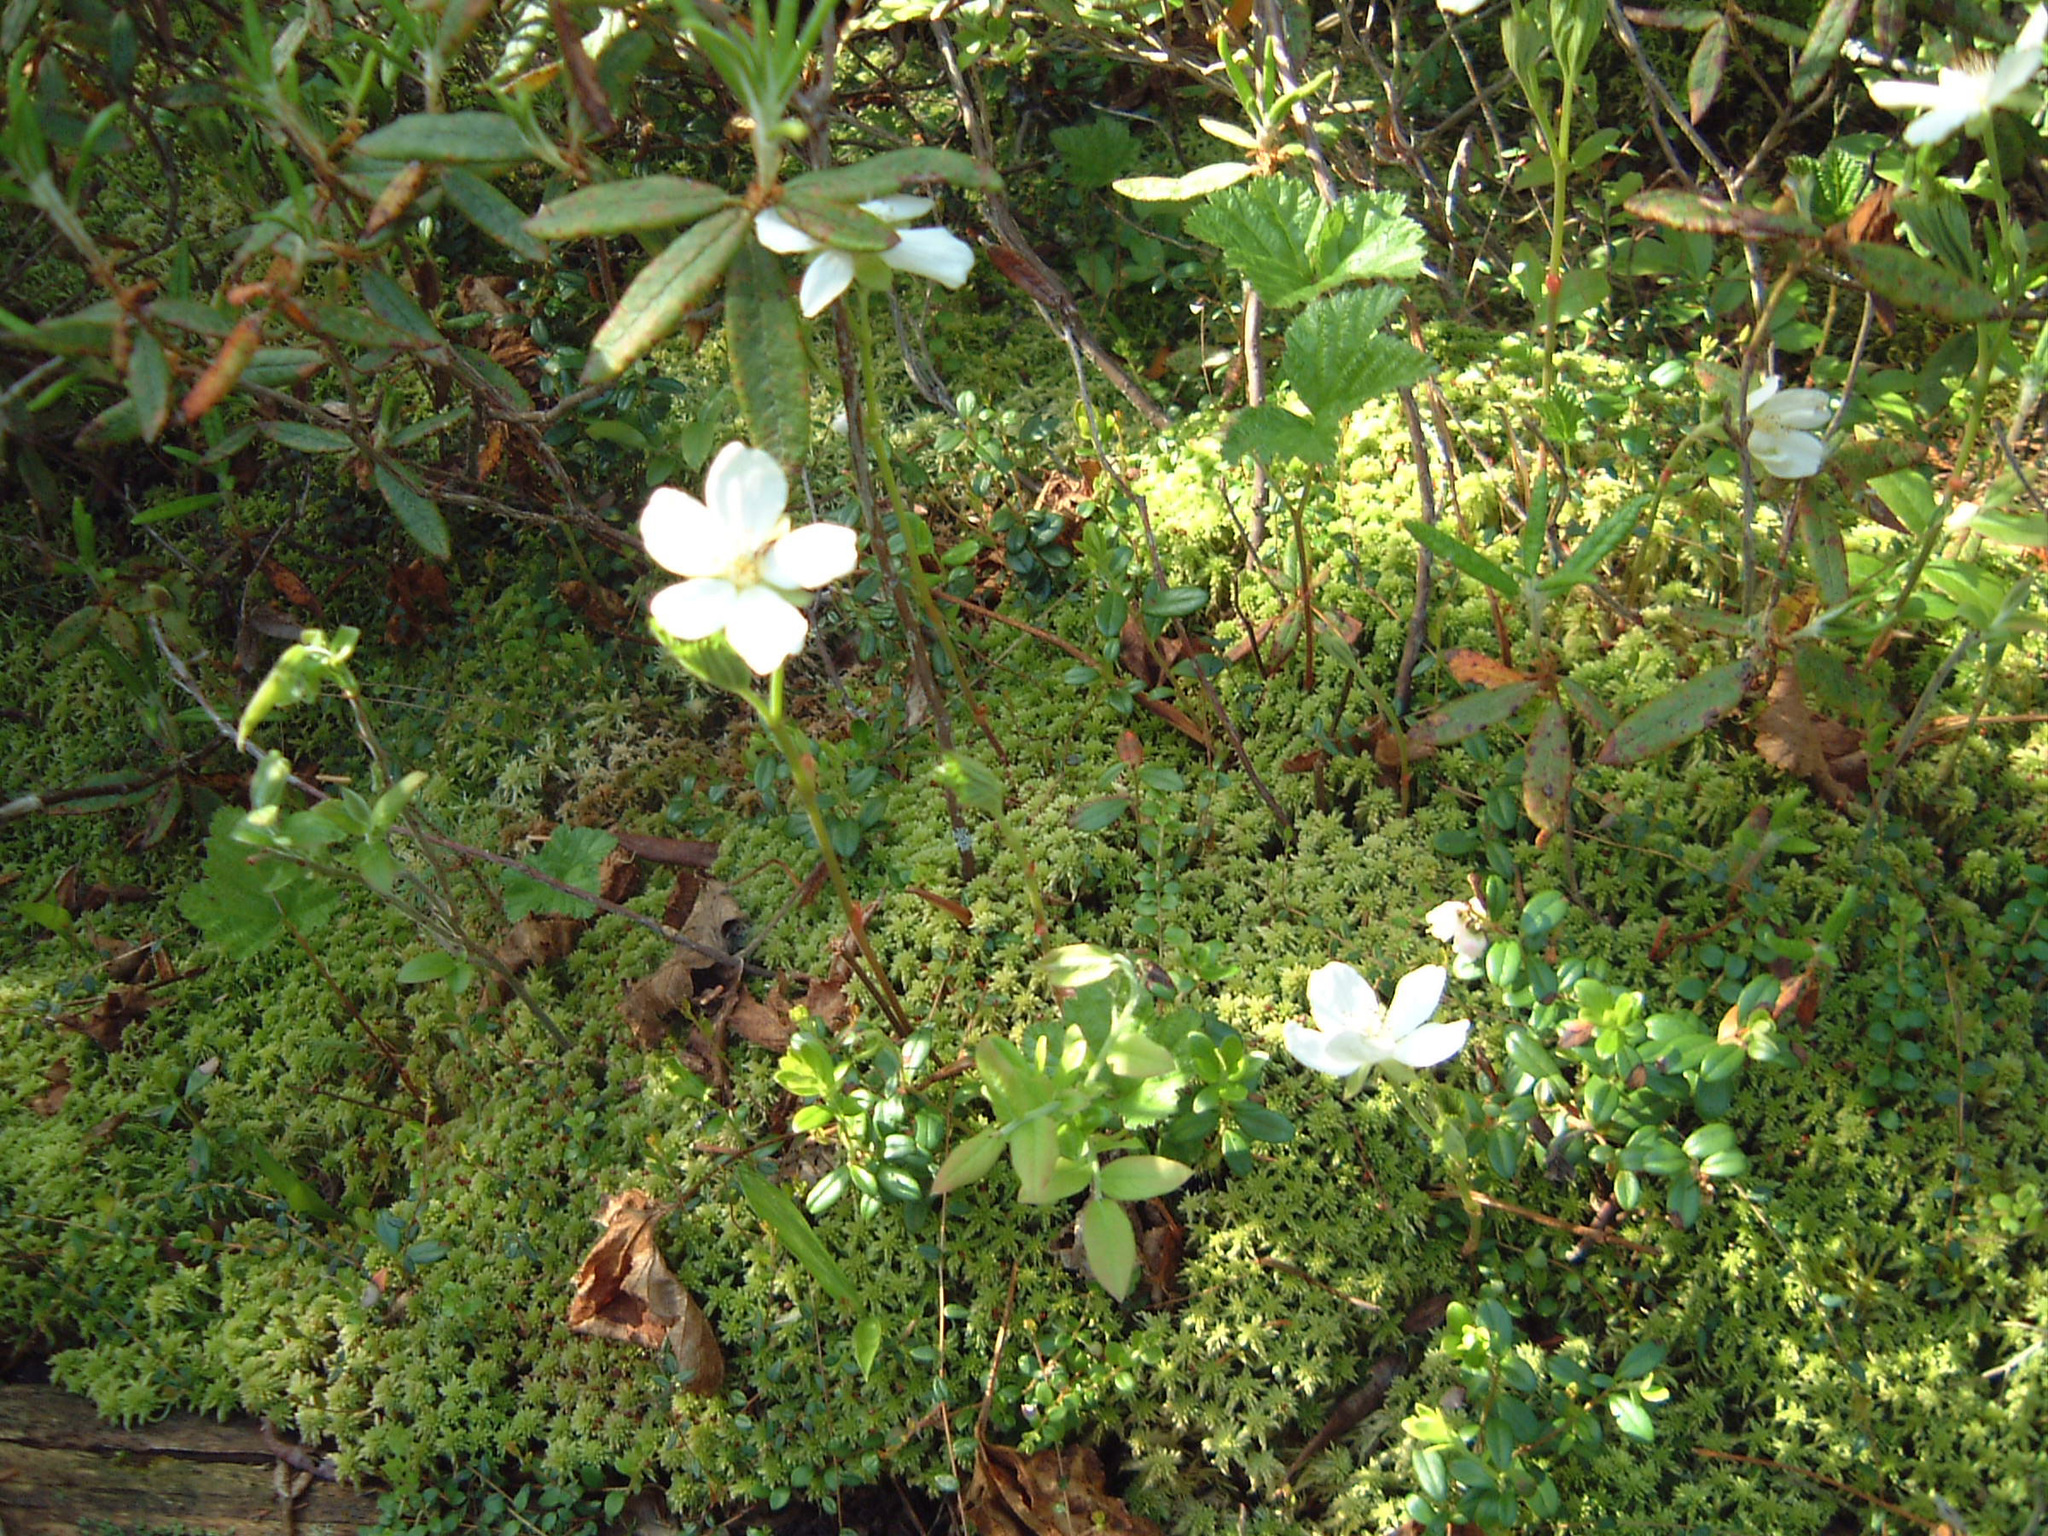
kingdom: Plantae
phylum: Tracheophyta
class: Magnoliopsida
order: Rosales
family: Rosaceae
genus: Rubus
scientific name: Rubus chamaemorus
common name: Cloudberry
